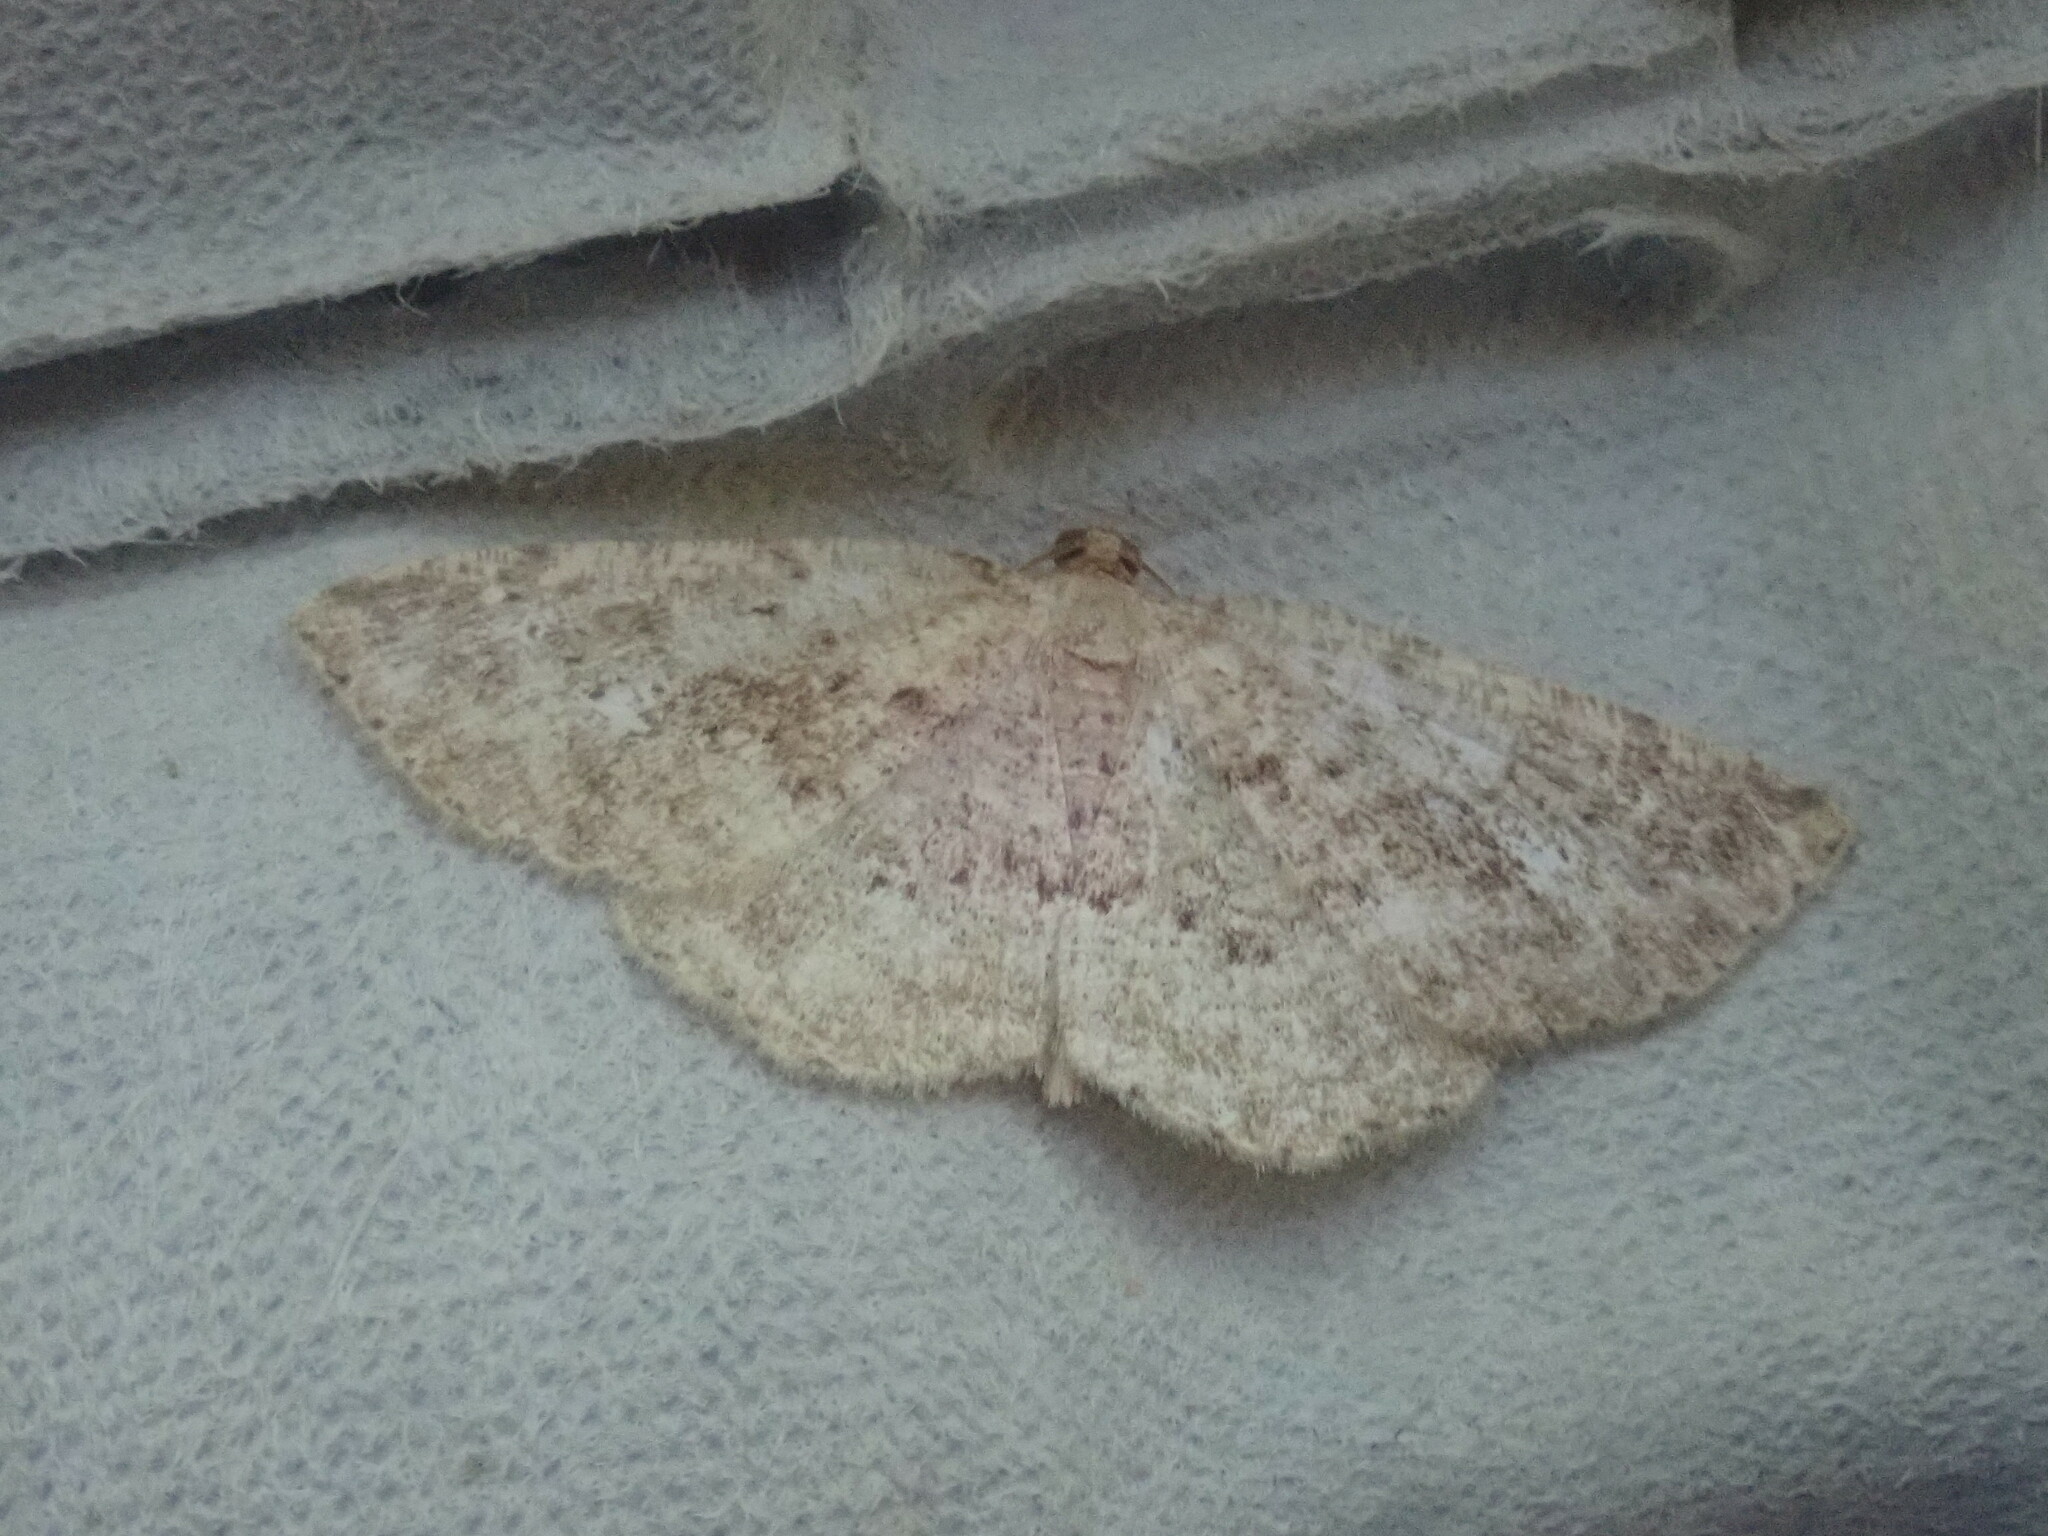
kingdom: Animalia
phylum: Arthropoda
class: Insecta
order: Lepidoptera
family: Geometridae
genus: Homochlodes
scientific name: Homochlodes fritillaria
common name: Pale homochlodes
